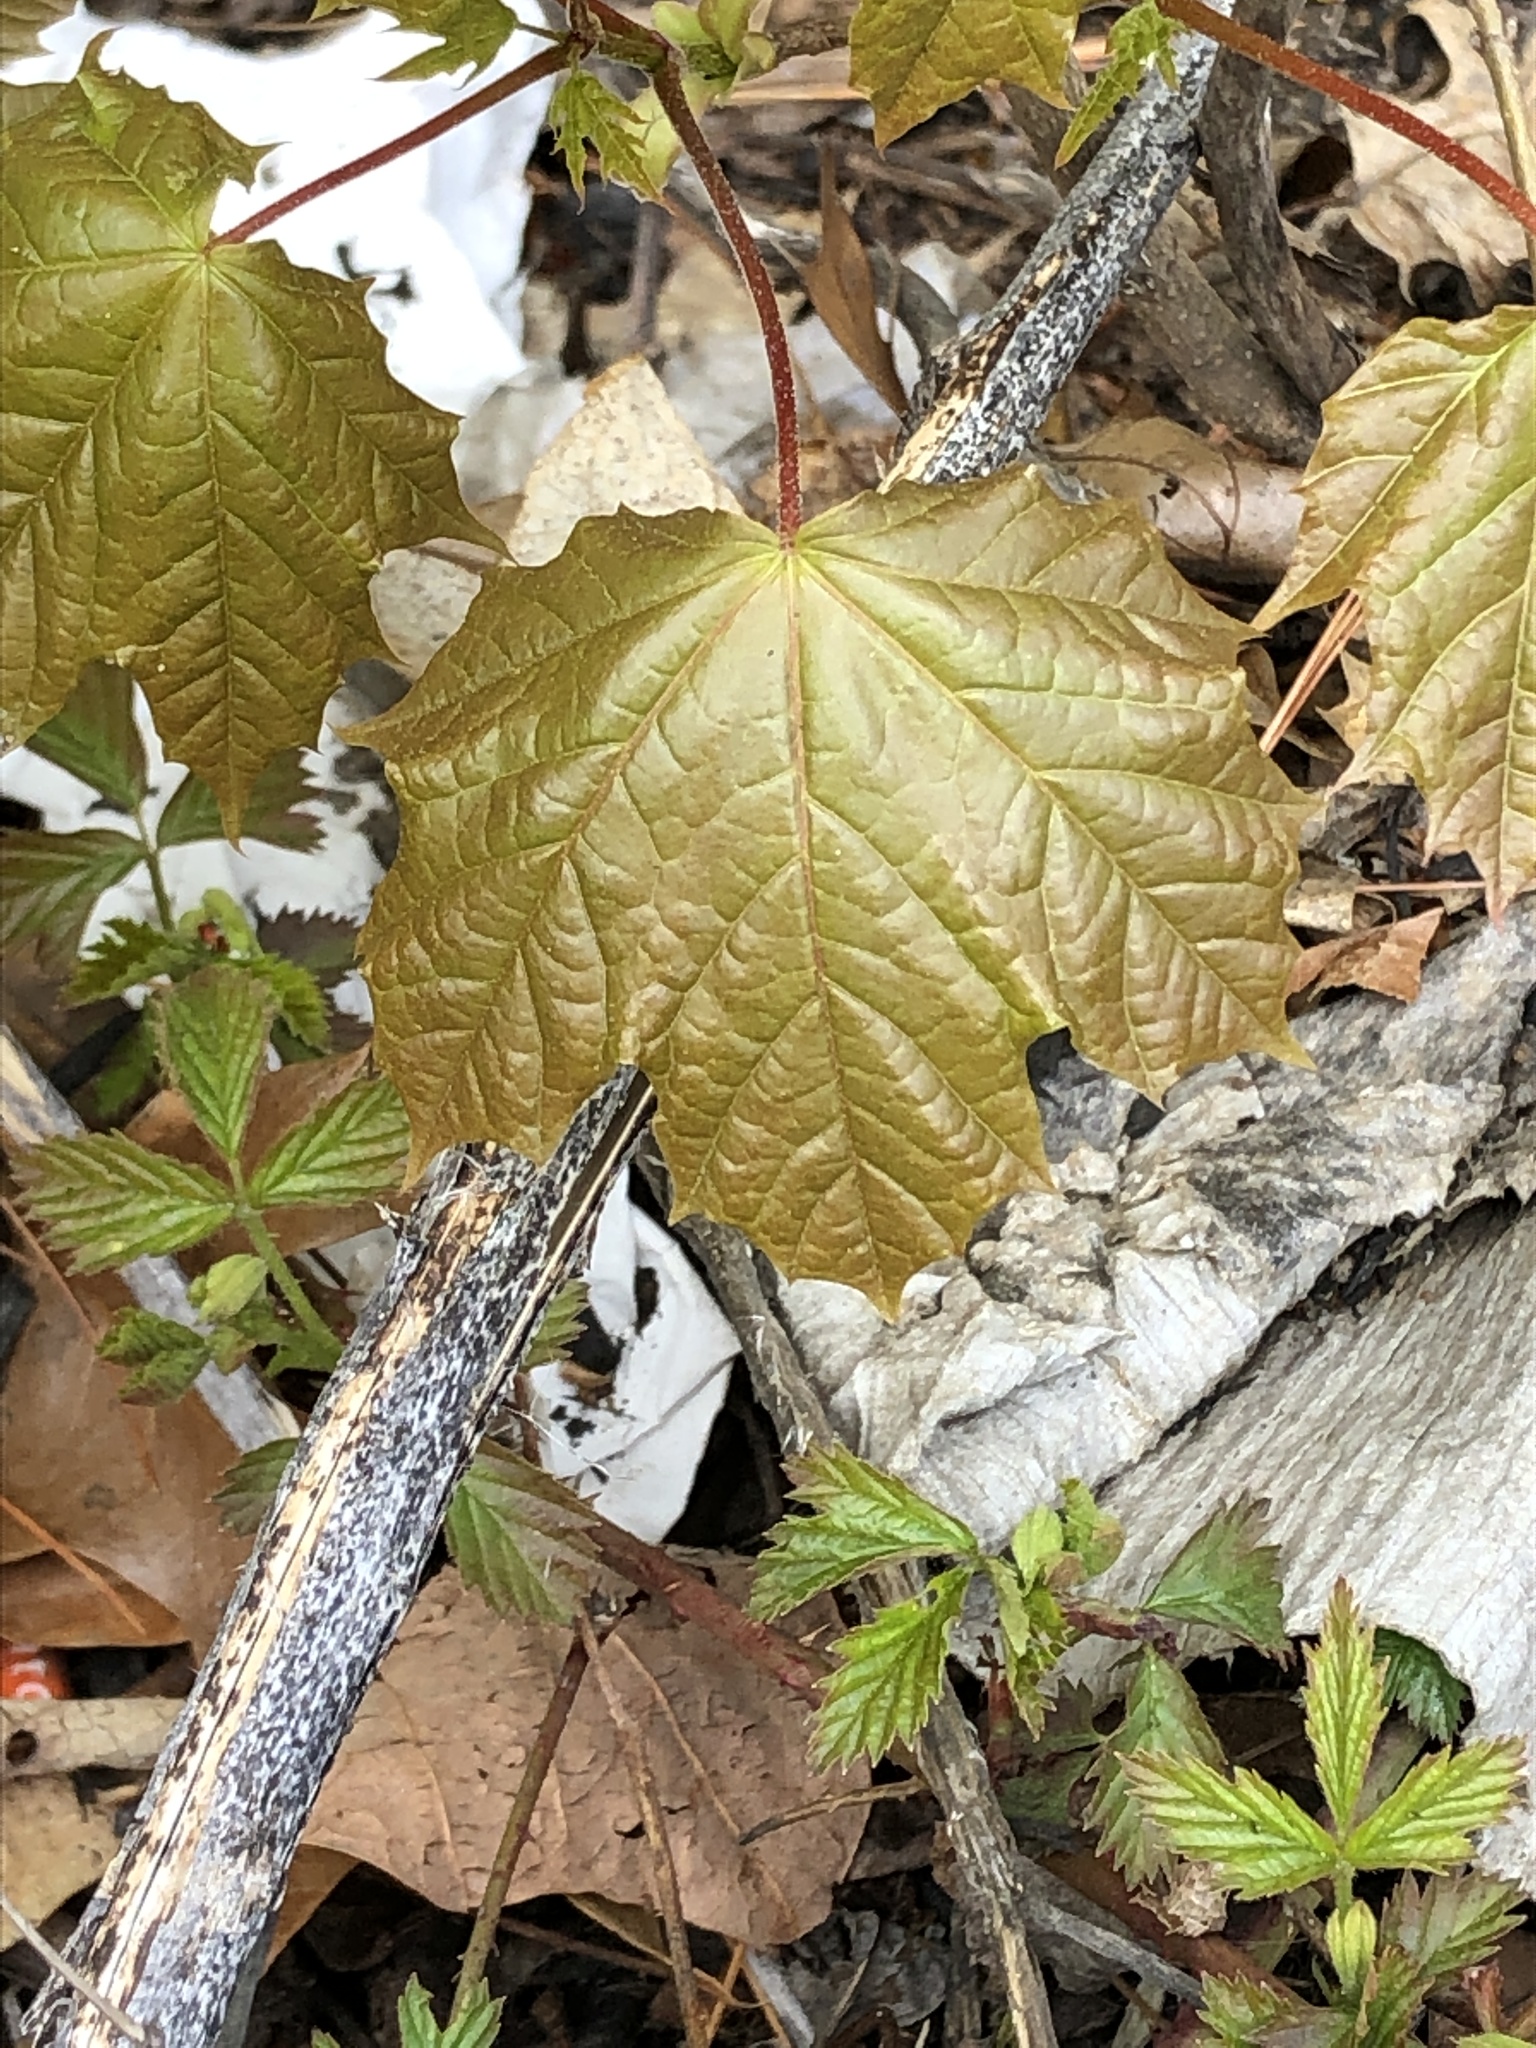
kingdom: Plantae
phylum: Tracheophyta
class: Magnoliopsida
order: Sapindales
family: Sapindaceae
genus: Acer
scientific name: Acer platanoides
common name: Norway maple
